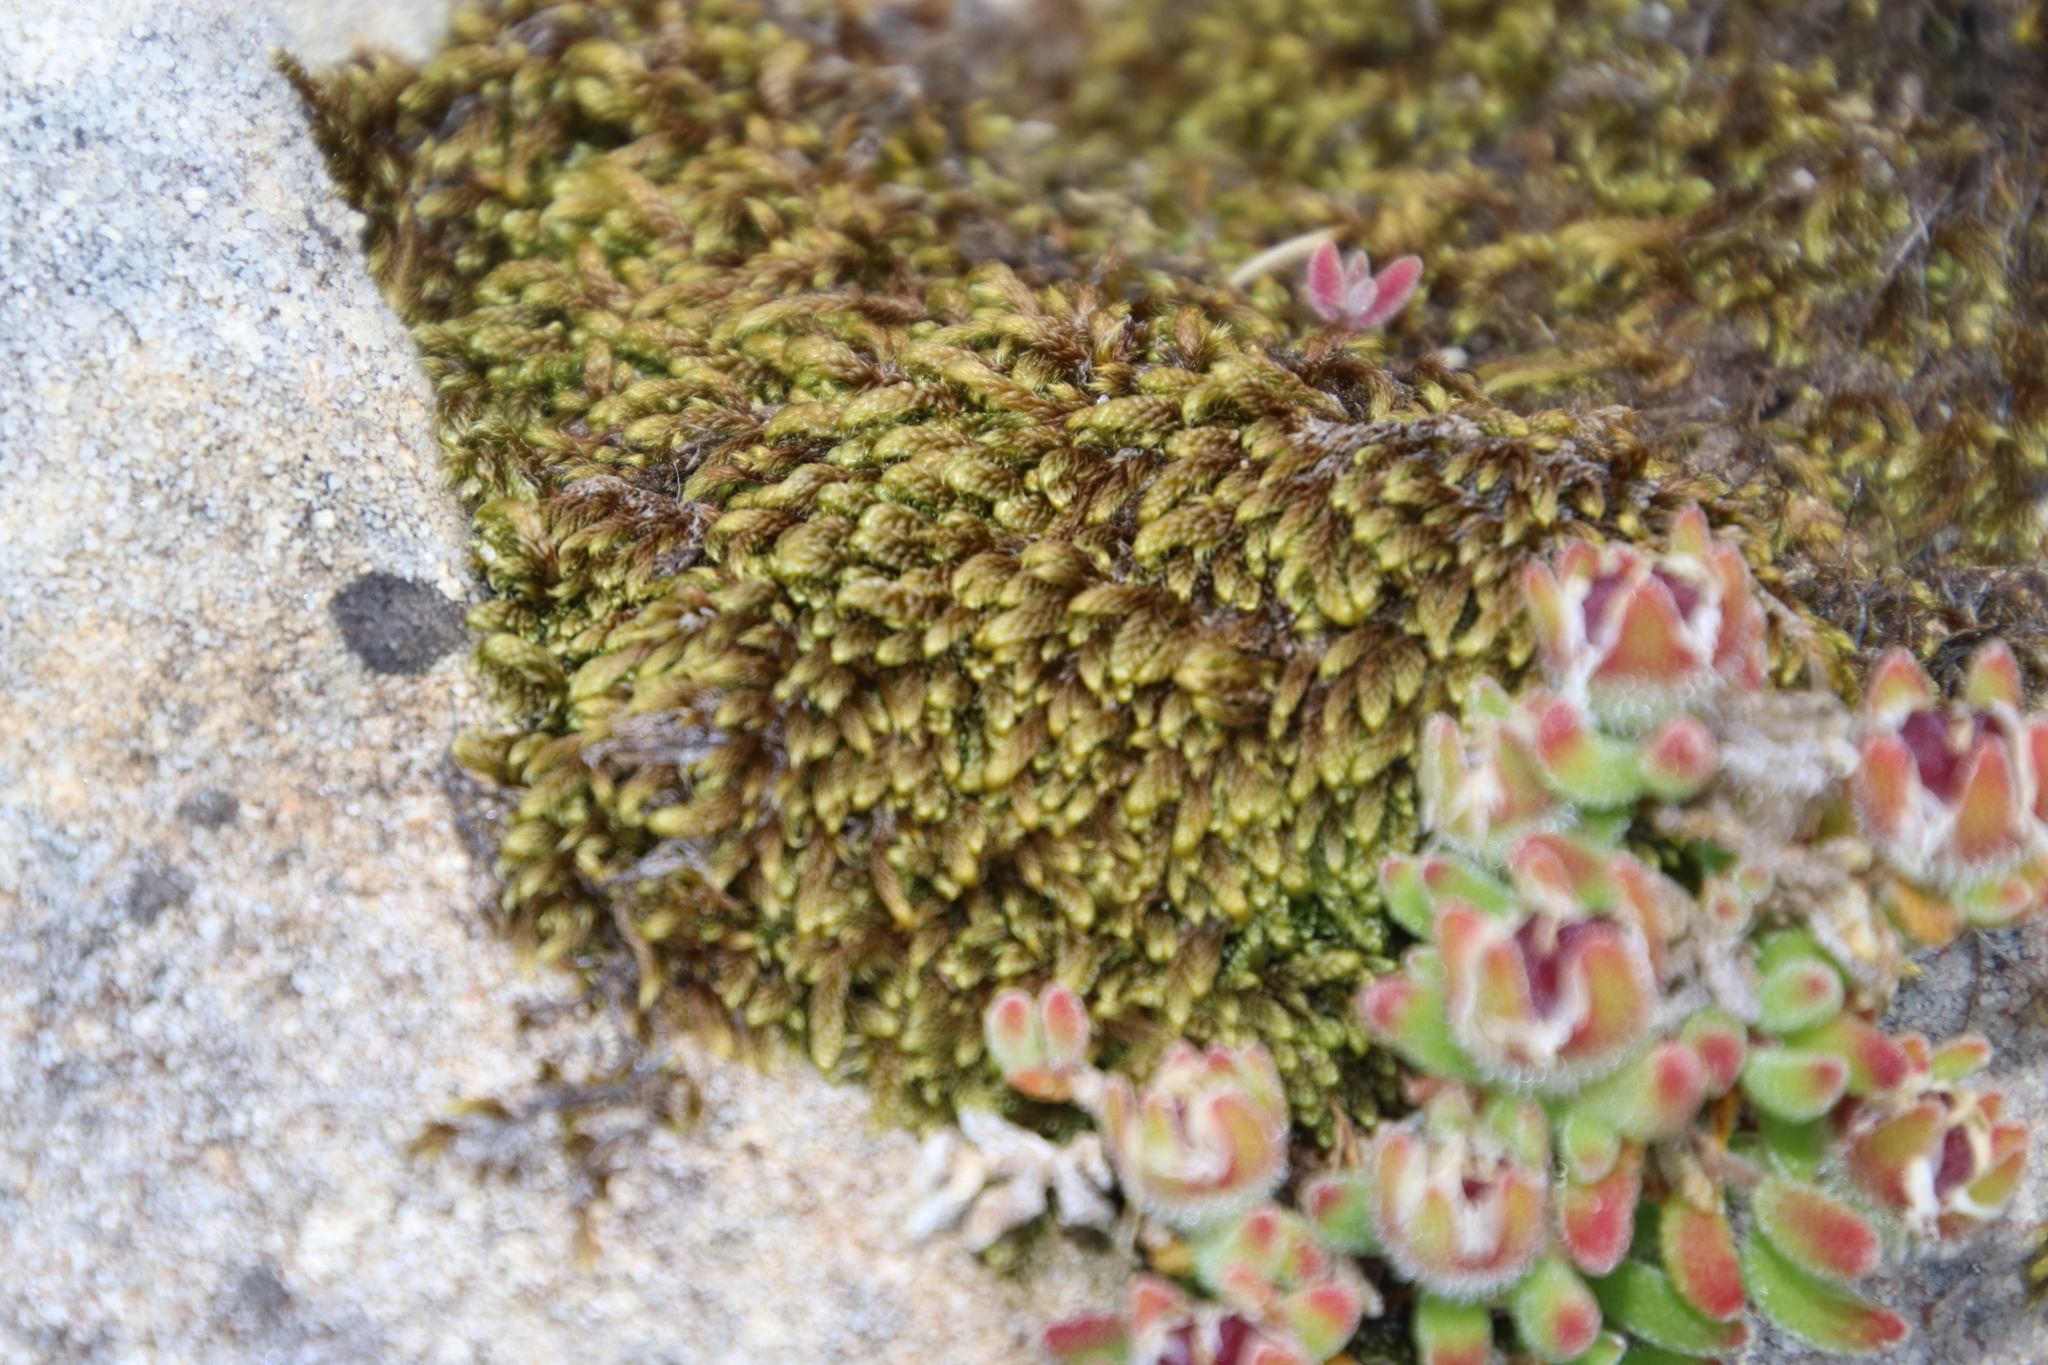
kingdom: Plantae
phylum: Bryophyta
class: Bryopsida
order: Hypnales
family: Hypnaceae
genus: Hypnum
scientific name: Hypnum cupressiforme
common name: Cypress-leaved plait-moss
